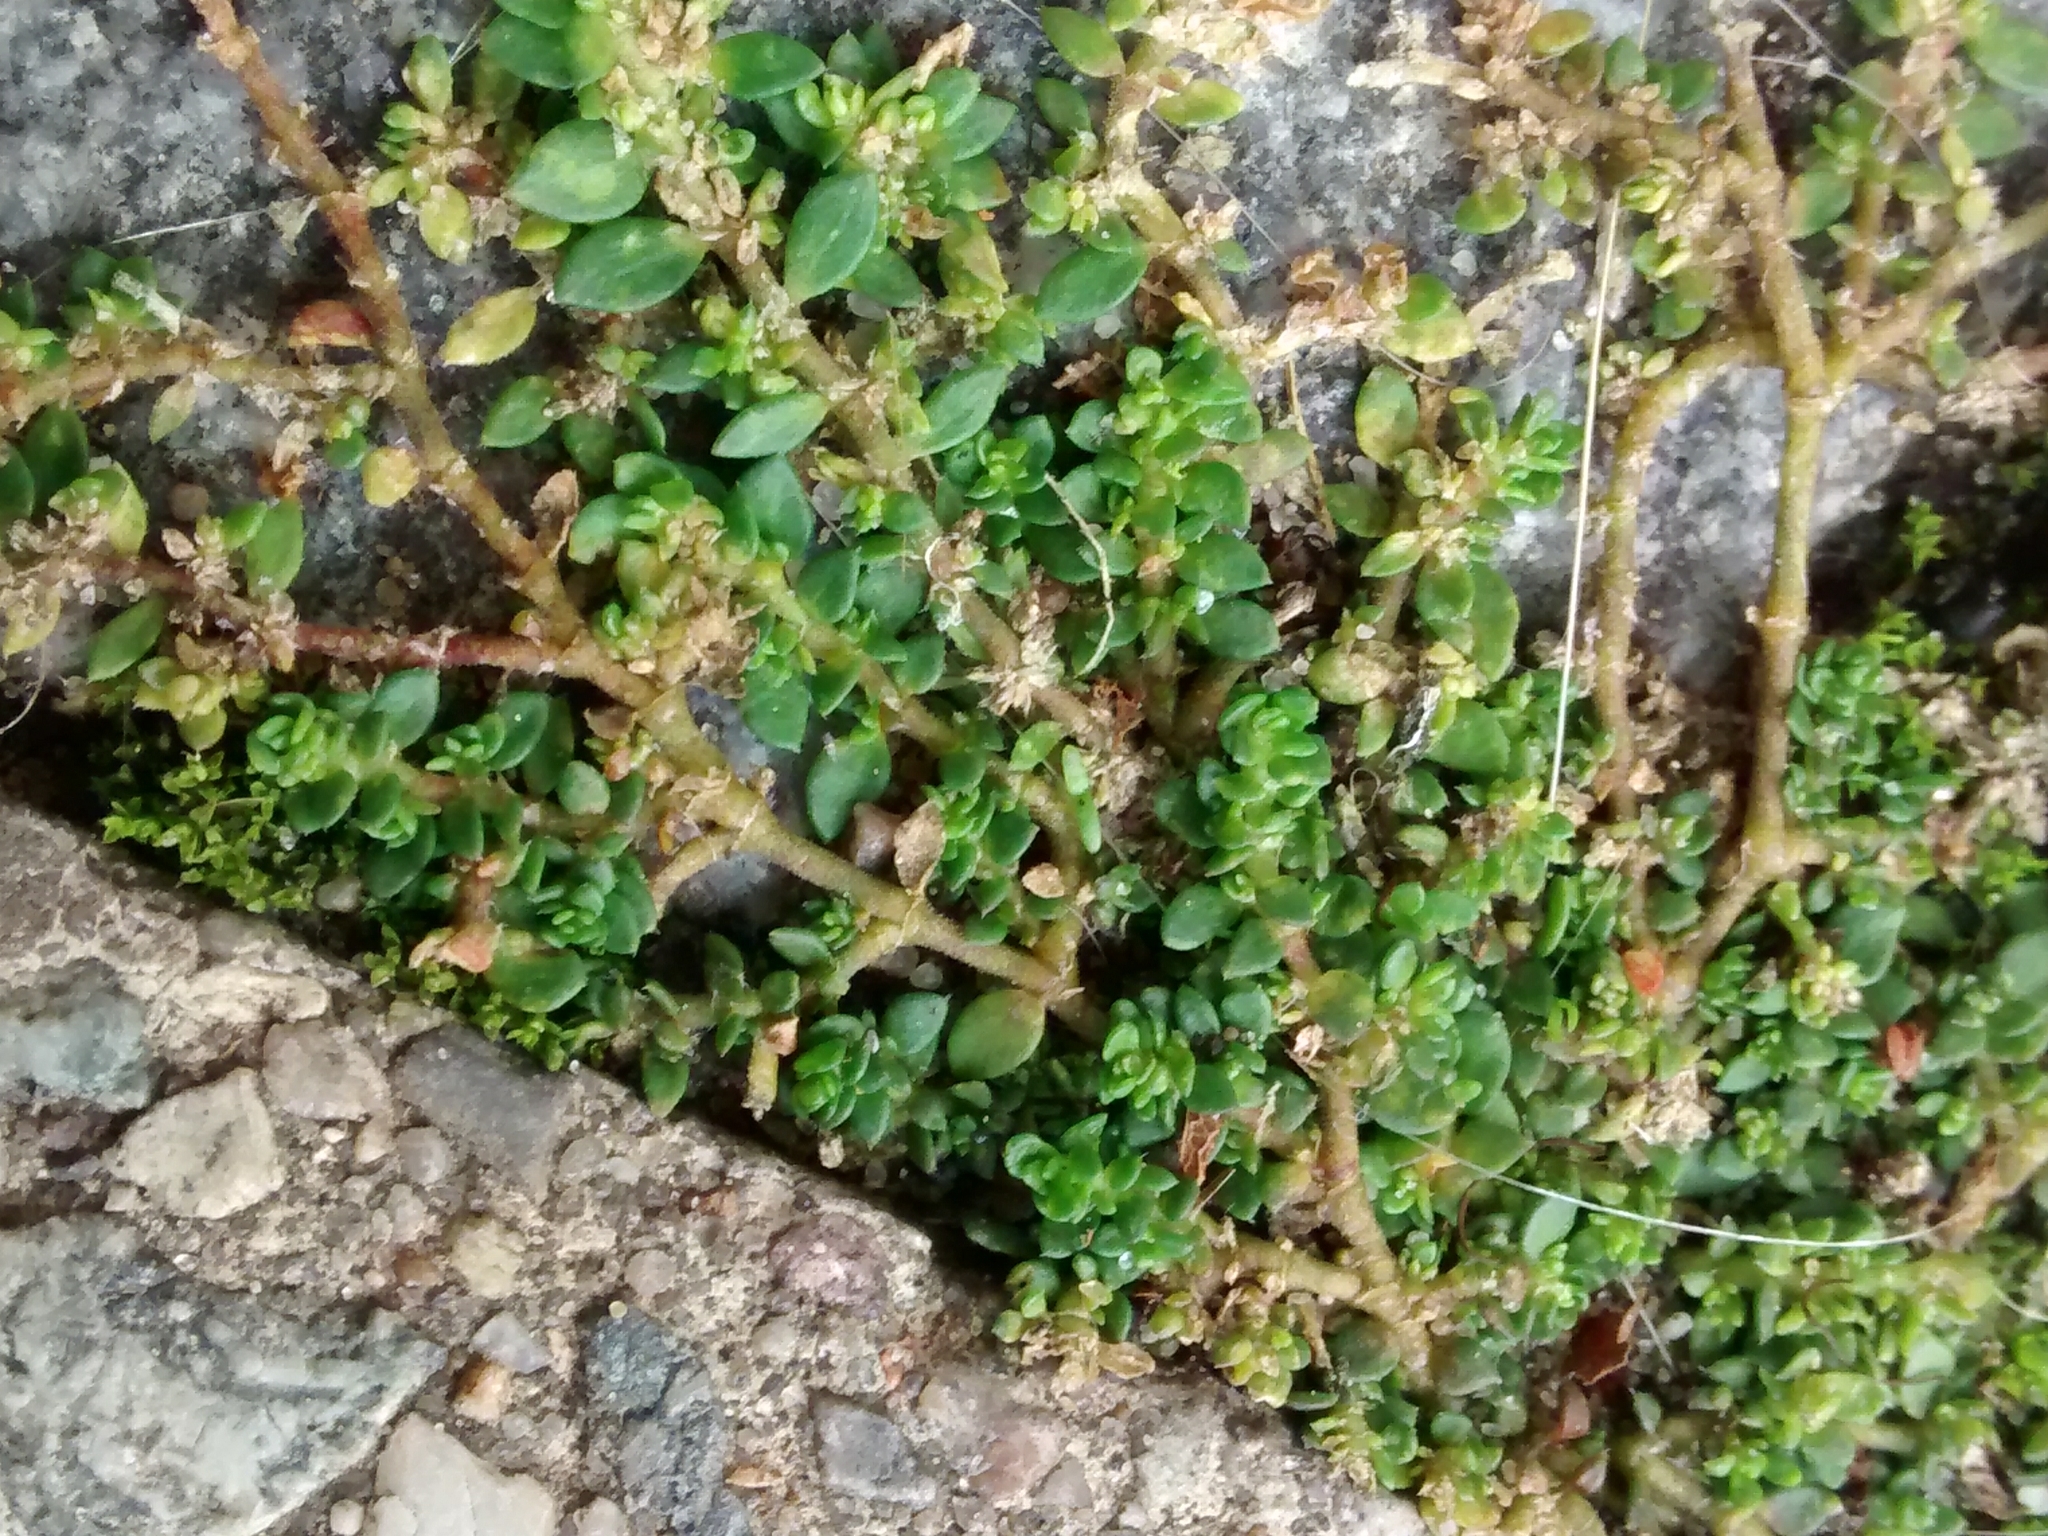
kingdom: Plantae
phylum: Tracheophyta
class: Magnoliopsida
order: Caryophyllales
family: Caryophyllaceae
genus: Herniaria
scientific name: Herniaria glabra
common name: Smooth rupturewort
